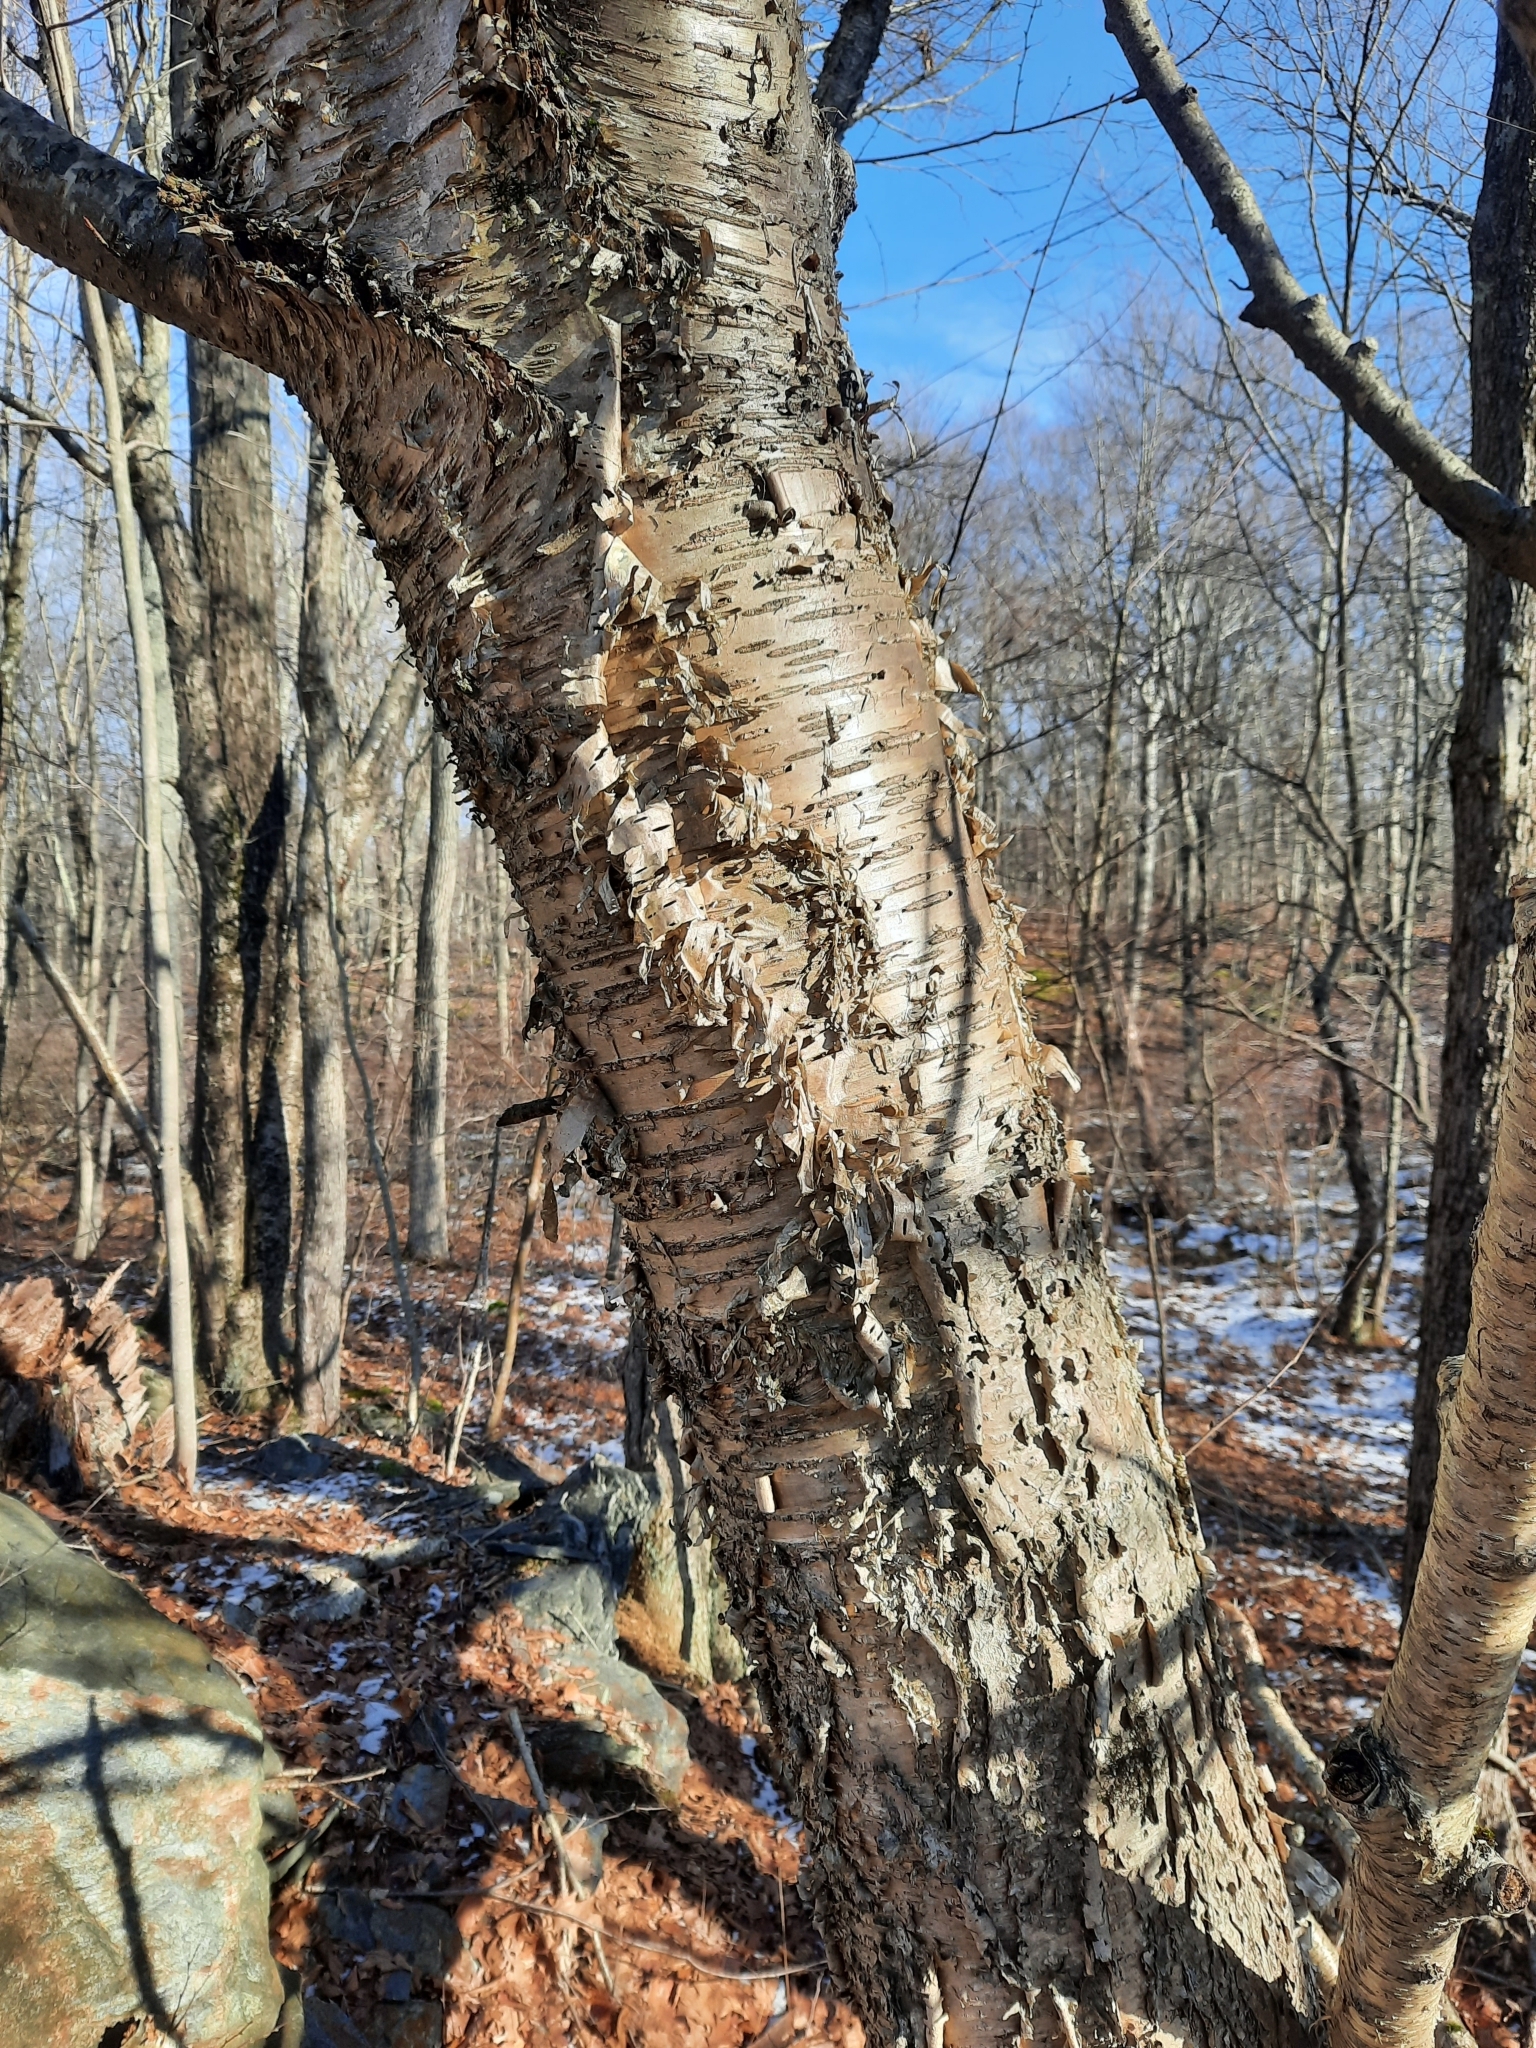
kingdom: Plantae
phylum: Tracheophyta
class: Magnoliopsida
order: Fagales
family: Betulaceae
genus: Betula
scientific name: Betula alleghaniensis
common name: Yellow birch
